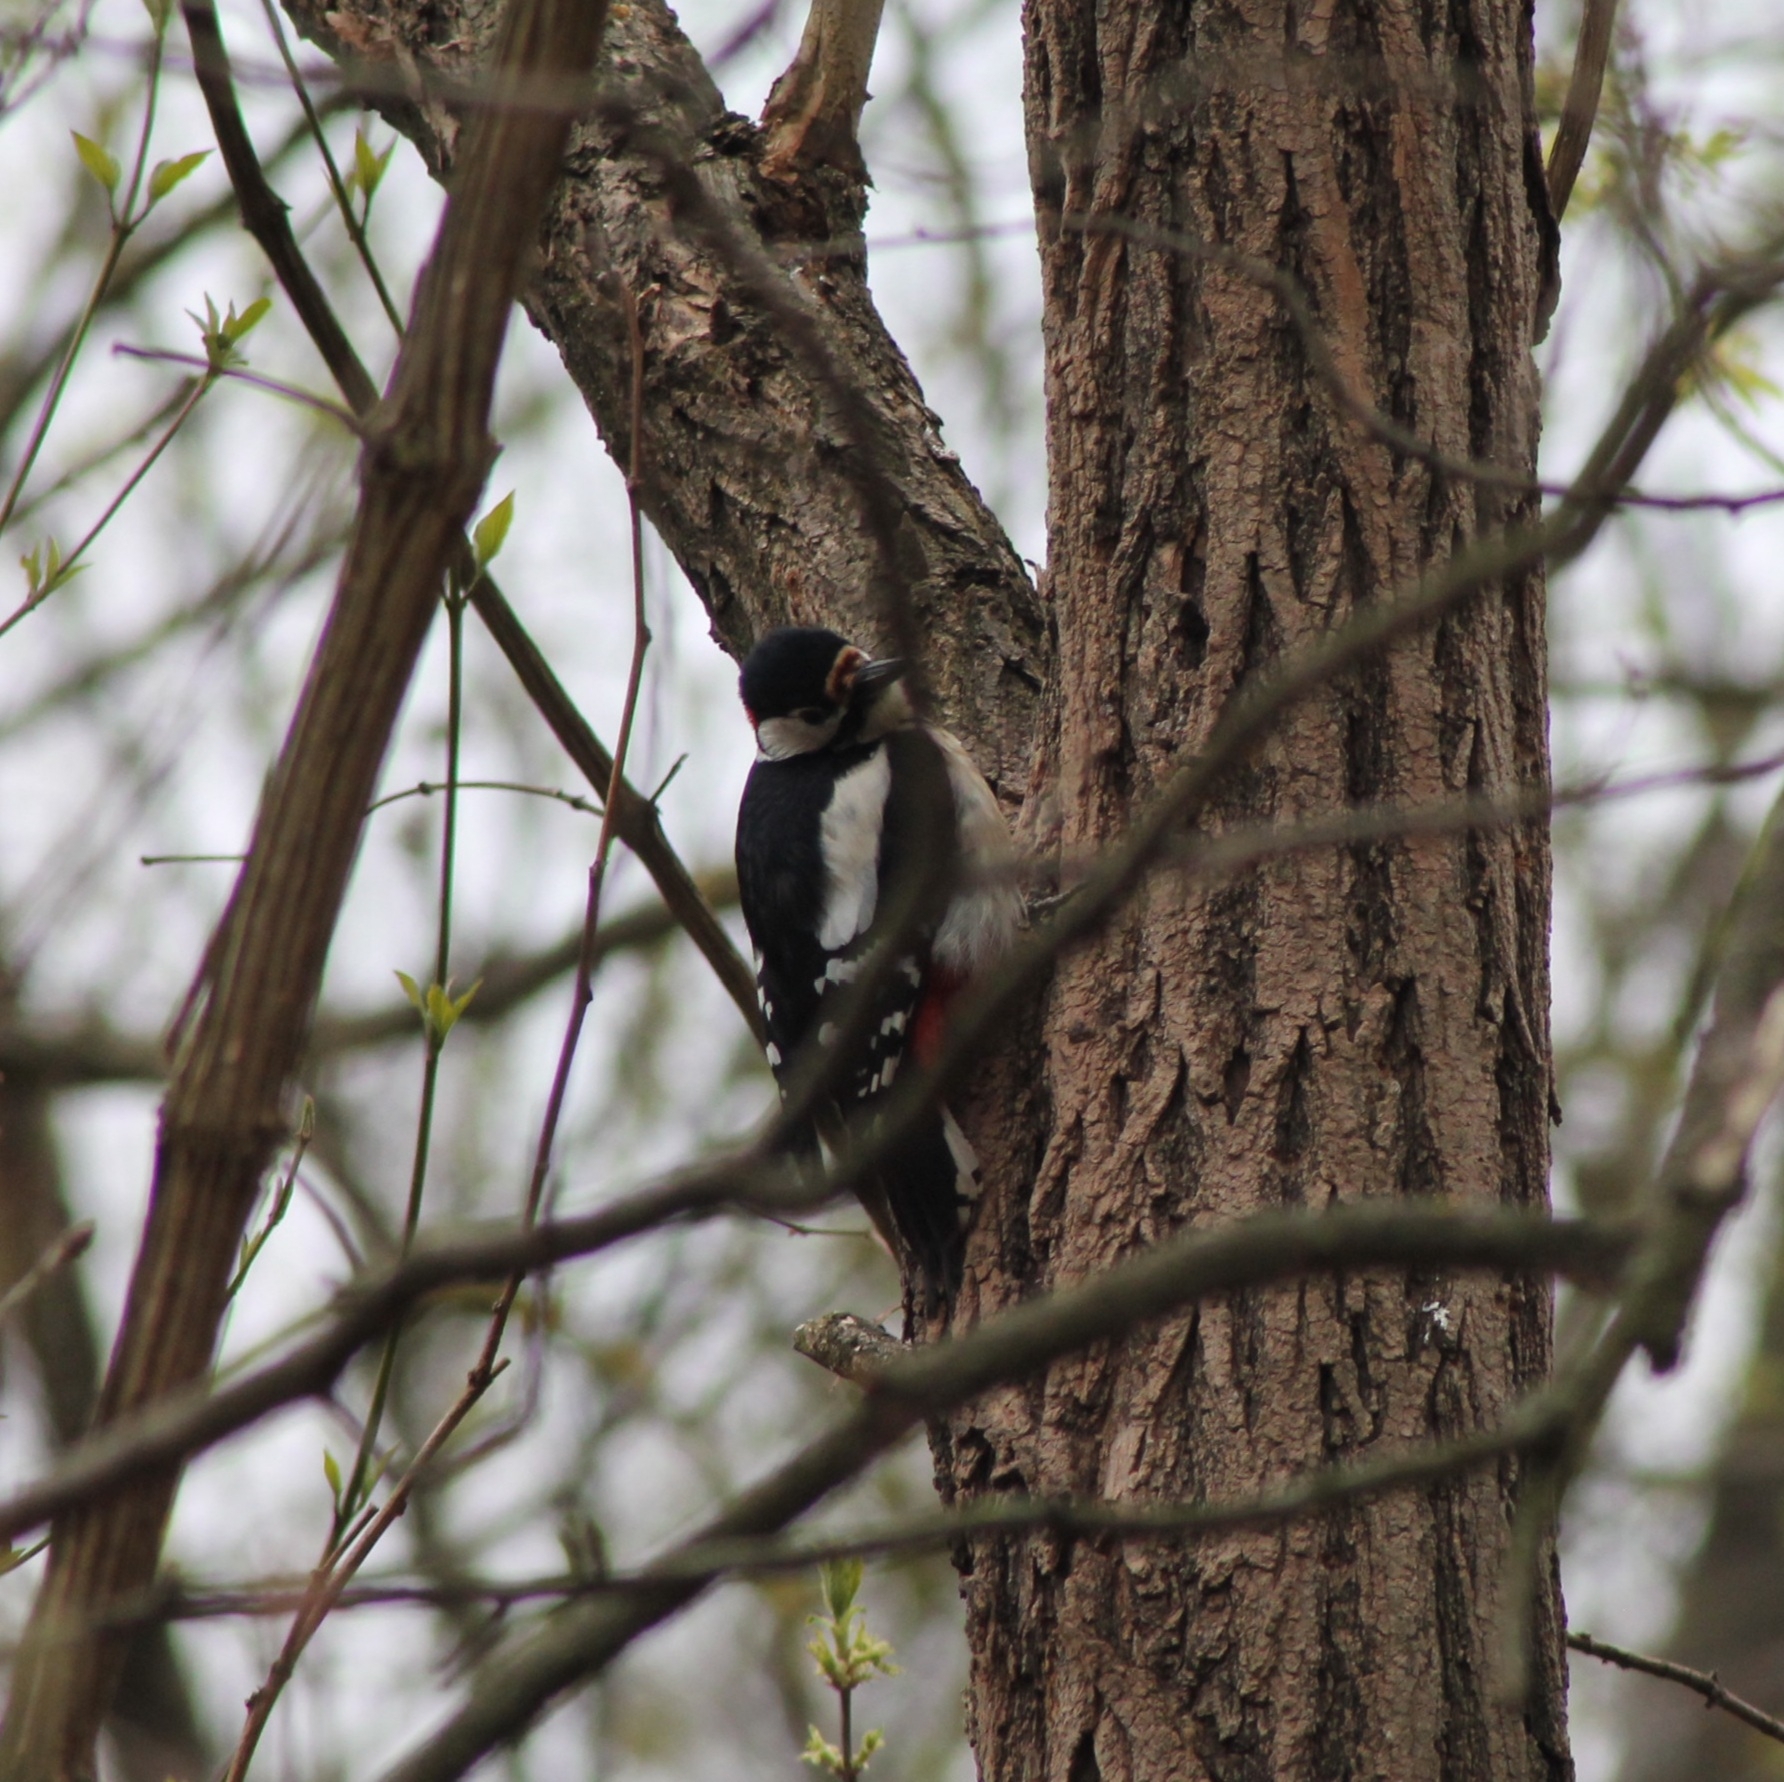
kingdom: Animalia
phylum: Chordata
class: Aves
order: Piciformes
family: Picidae
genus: Dendrocopos
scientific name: Dendrocopos major
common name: Great spotted woodpecker
